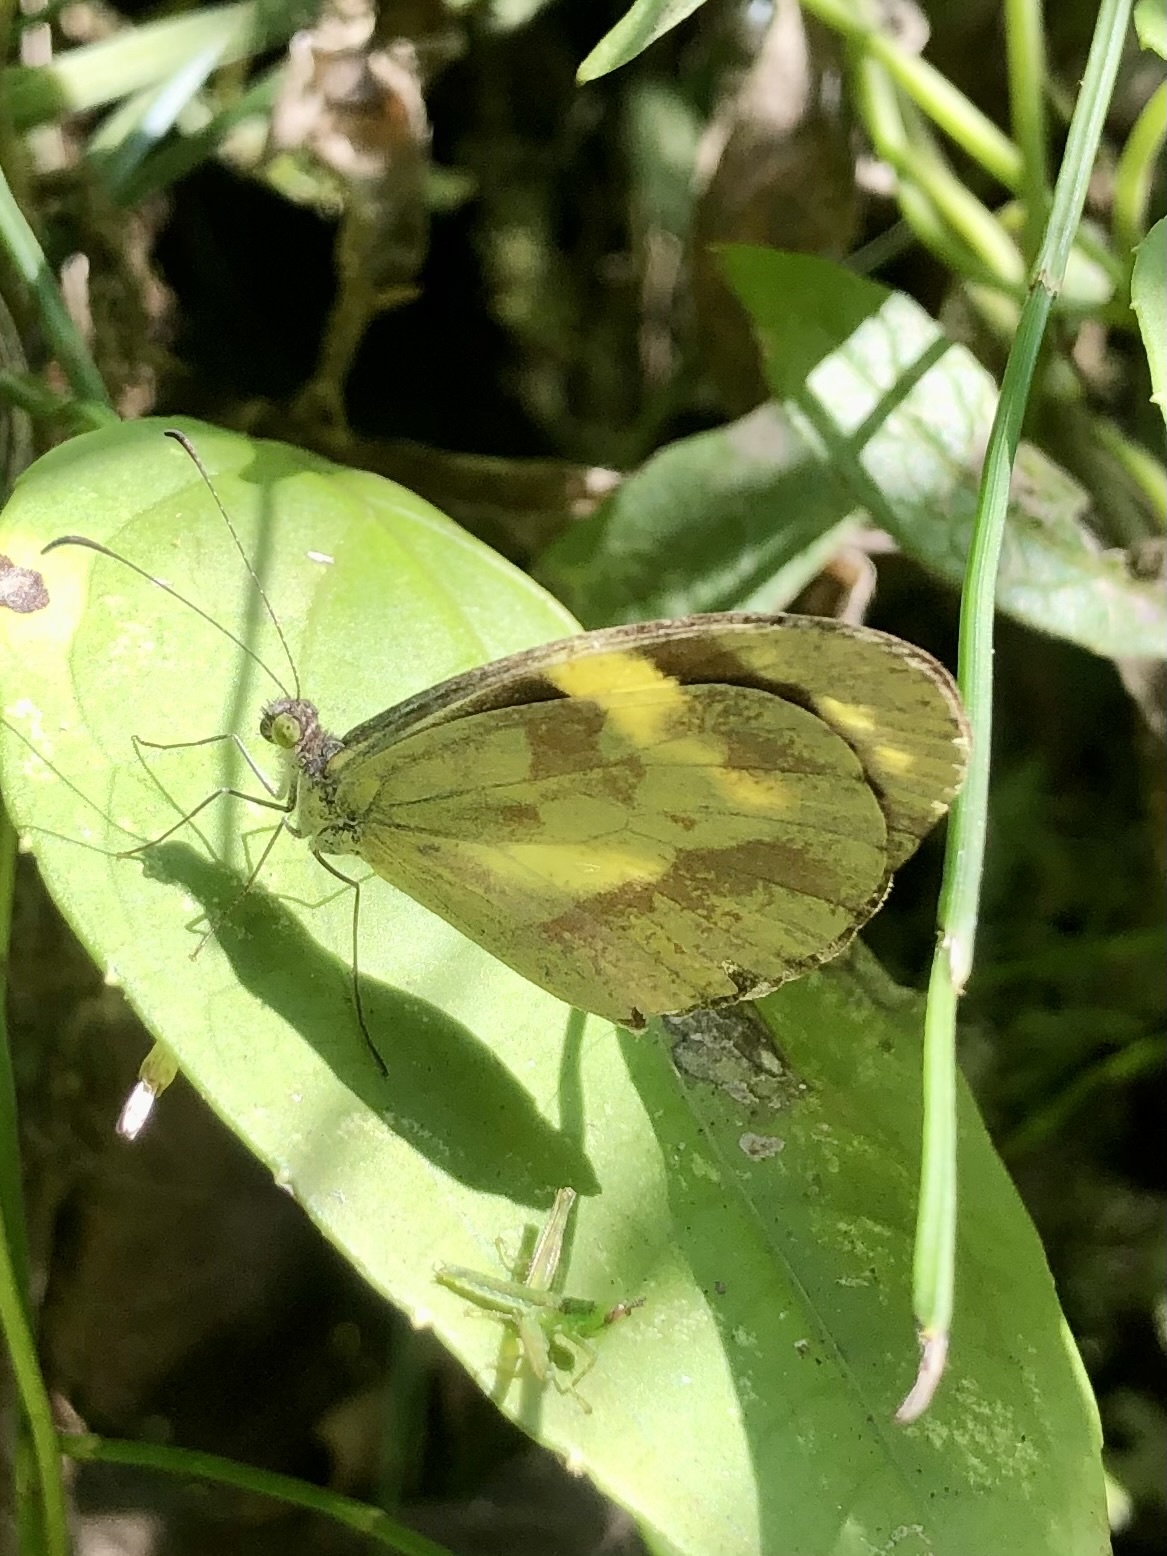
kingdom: Animalia
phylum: Arthropoda
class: Insecta
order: Lepidoptera
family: Pieridae
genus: Dismorphia
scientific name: Dismorphia medora
